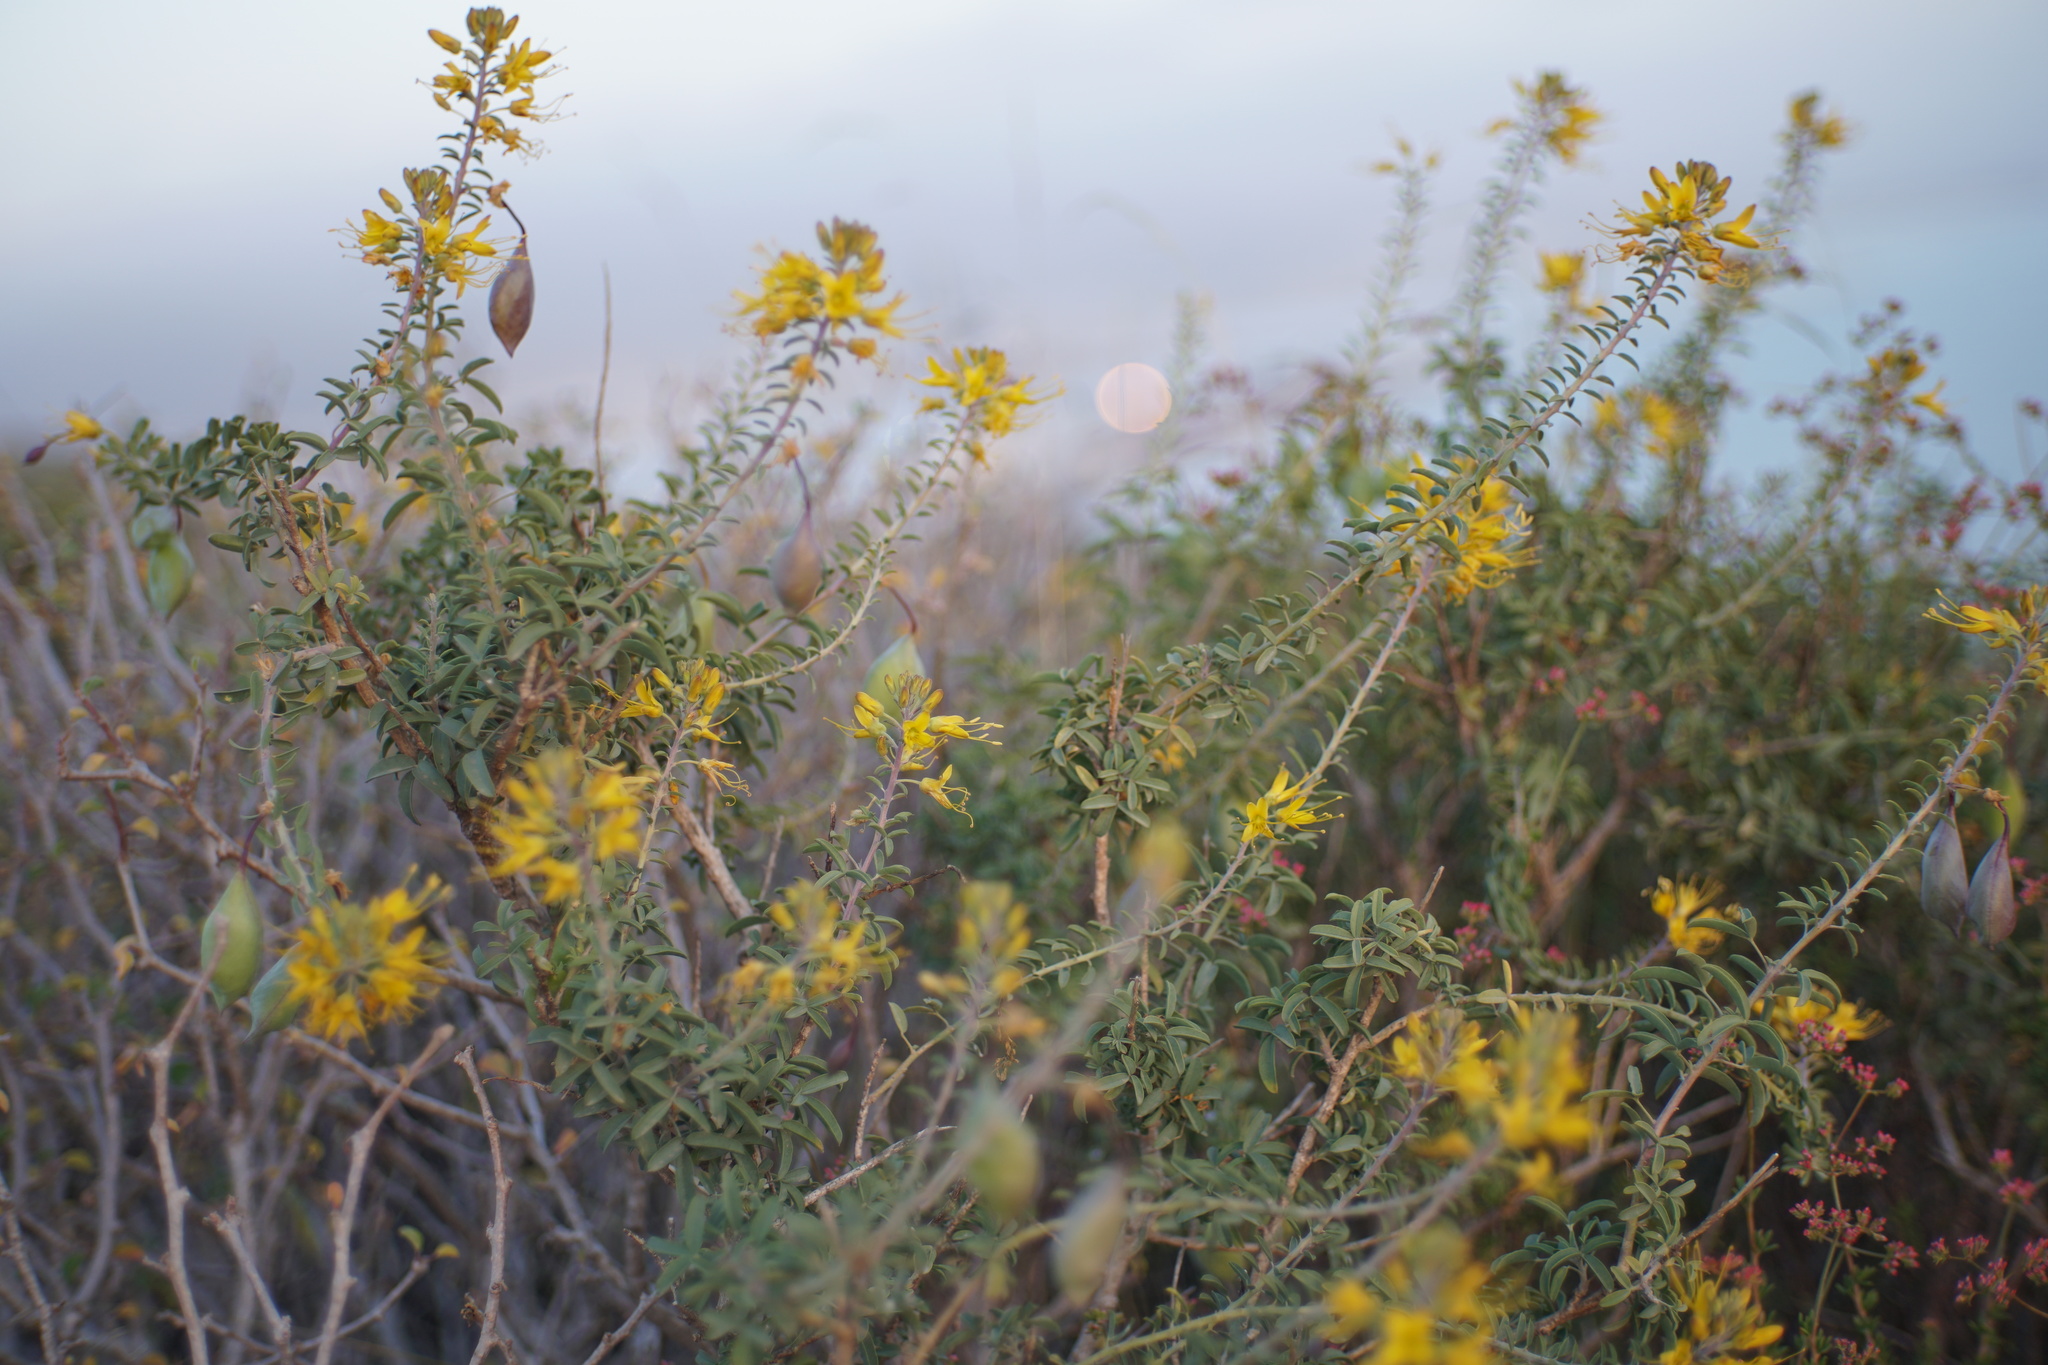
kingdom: Plantae
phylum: Tracheophyta
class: Magnoliopsida
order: Brassicales
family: Cleomaceae
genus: Cleomella
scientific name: Cleomella arborea
